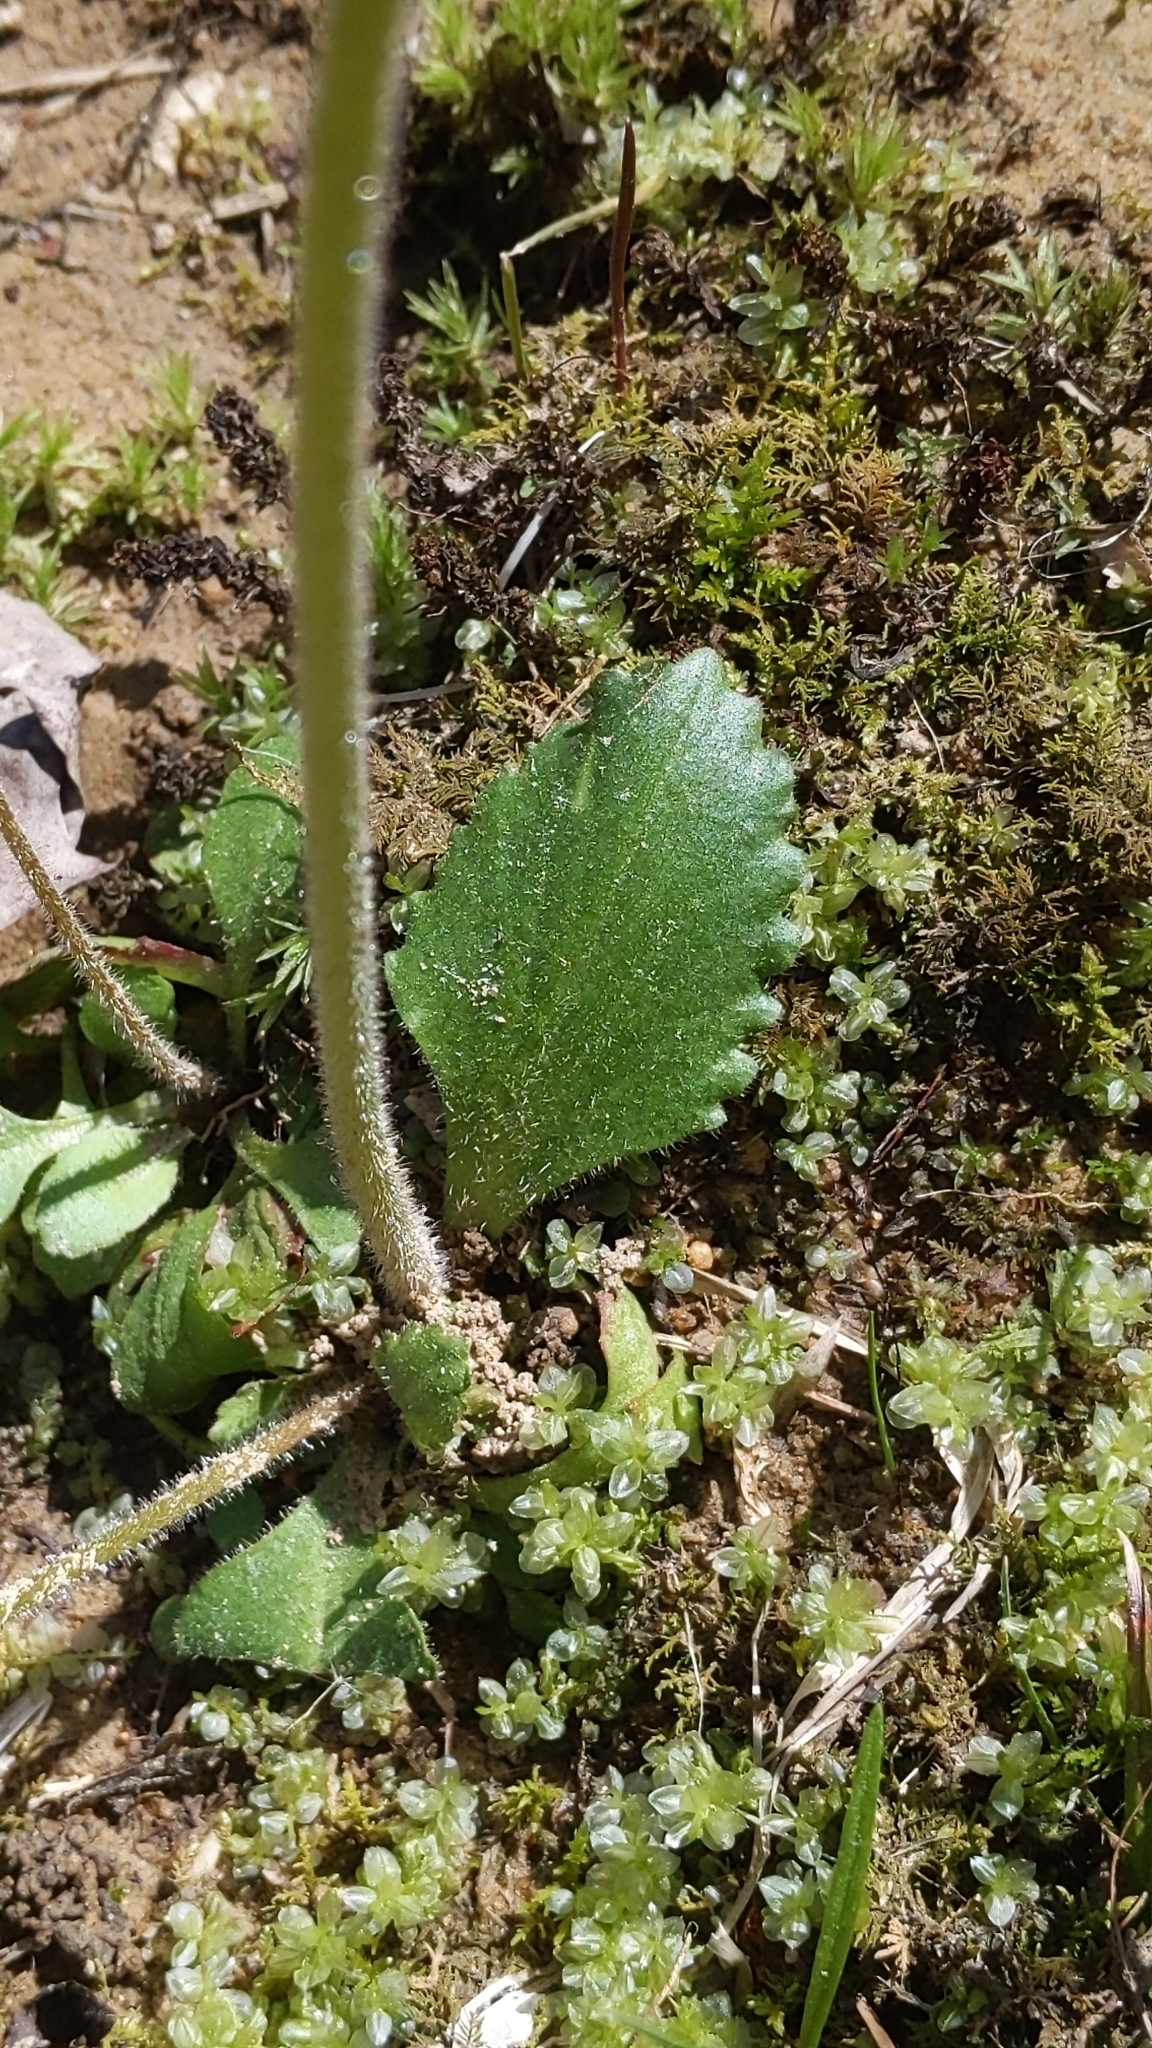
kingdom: Plantae
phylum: Tracheophyta
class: Magnoliopsida
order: Saxifragales
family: Saxifragaceae
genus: Micranthes
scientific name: Micranthes virginiensis
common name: Early saxifrage
